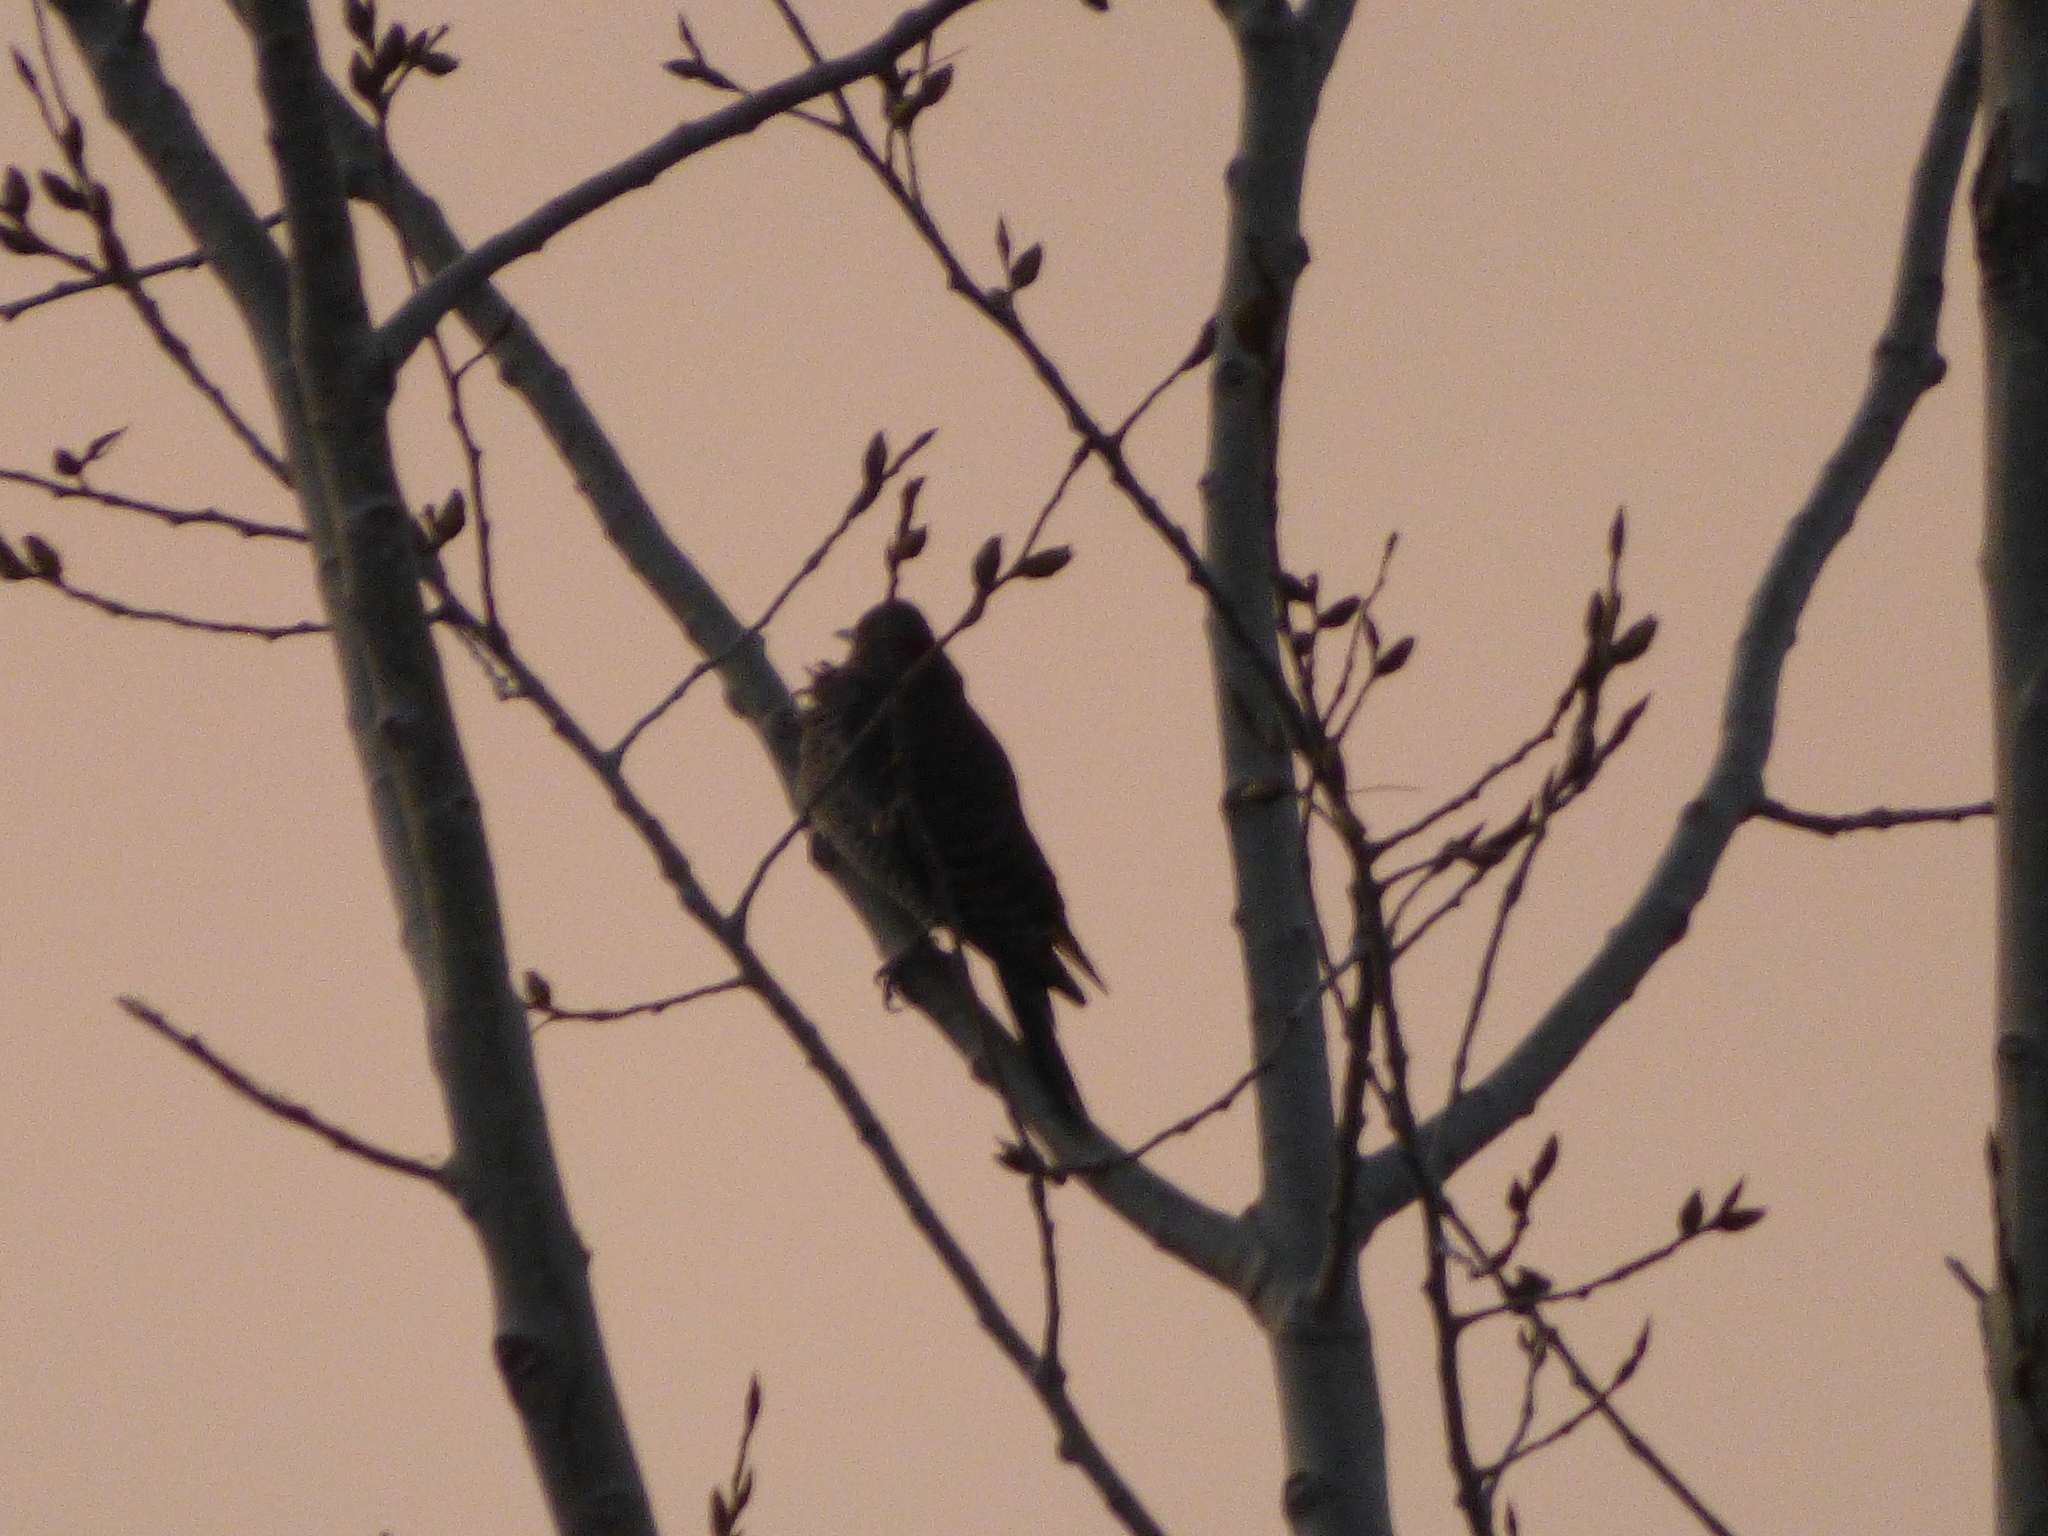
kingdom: Animalia
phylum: Chordata
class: Aves
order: Piciformes
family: Picidae
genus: Colaptes
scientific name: Colaptes auratus
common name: Northern flicker
